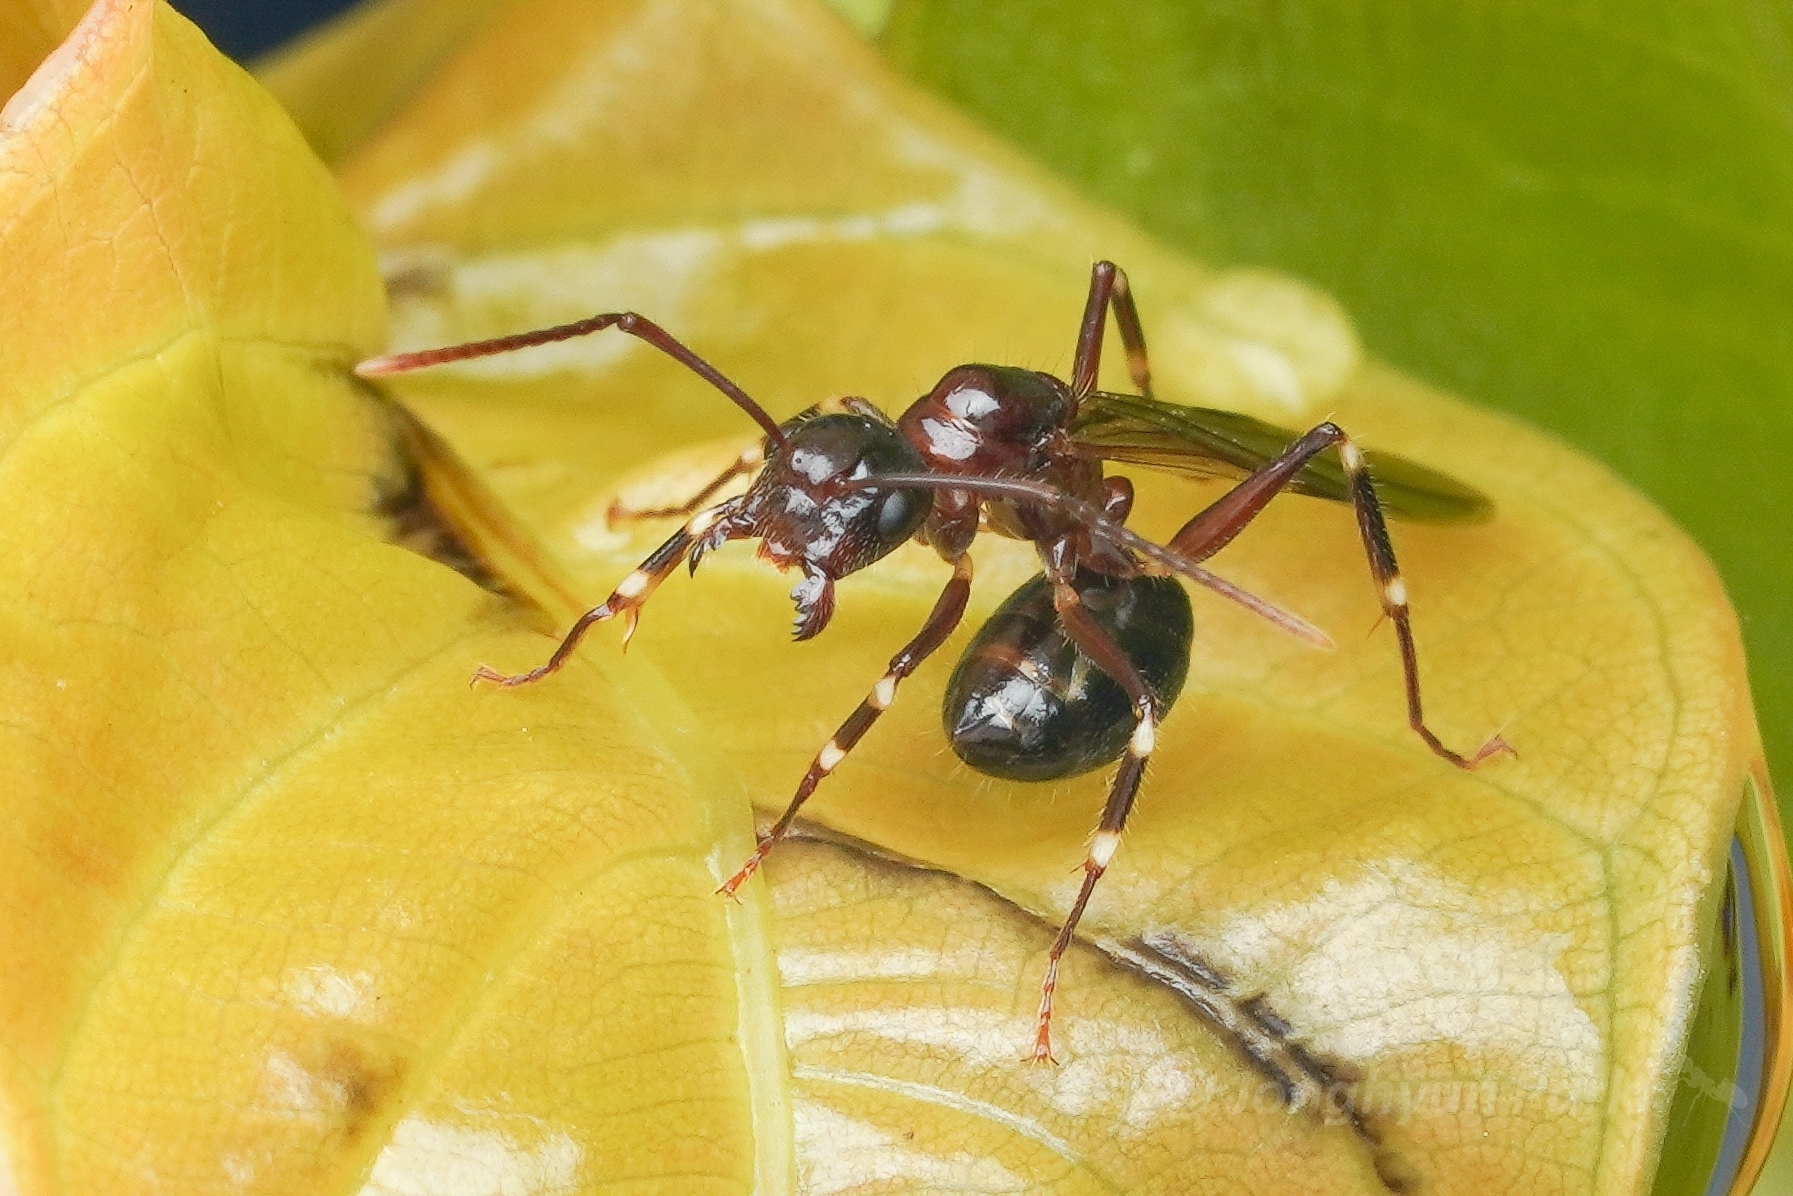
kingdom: Animalia
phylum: Arthropoda
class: Insecta
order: Hymenoptera
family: Formicidae
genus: Camponotus
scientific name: Camponotus
